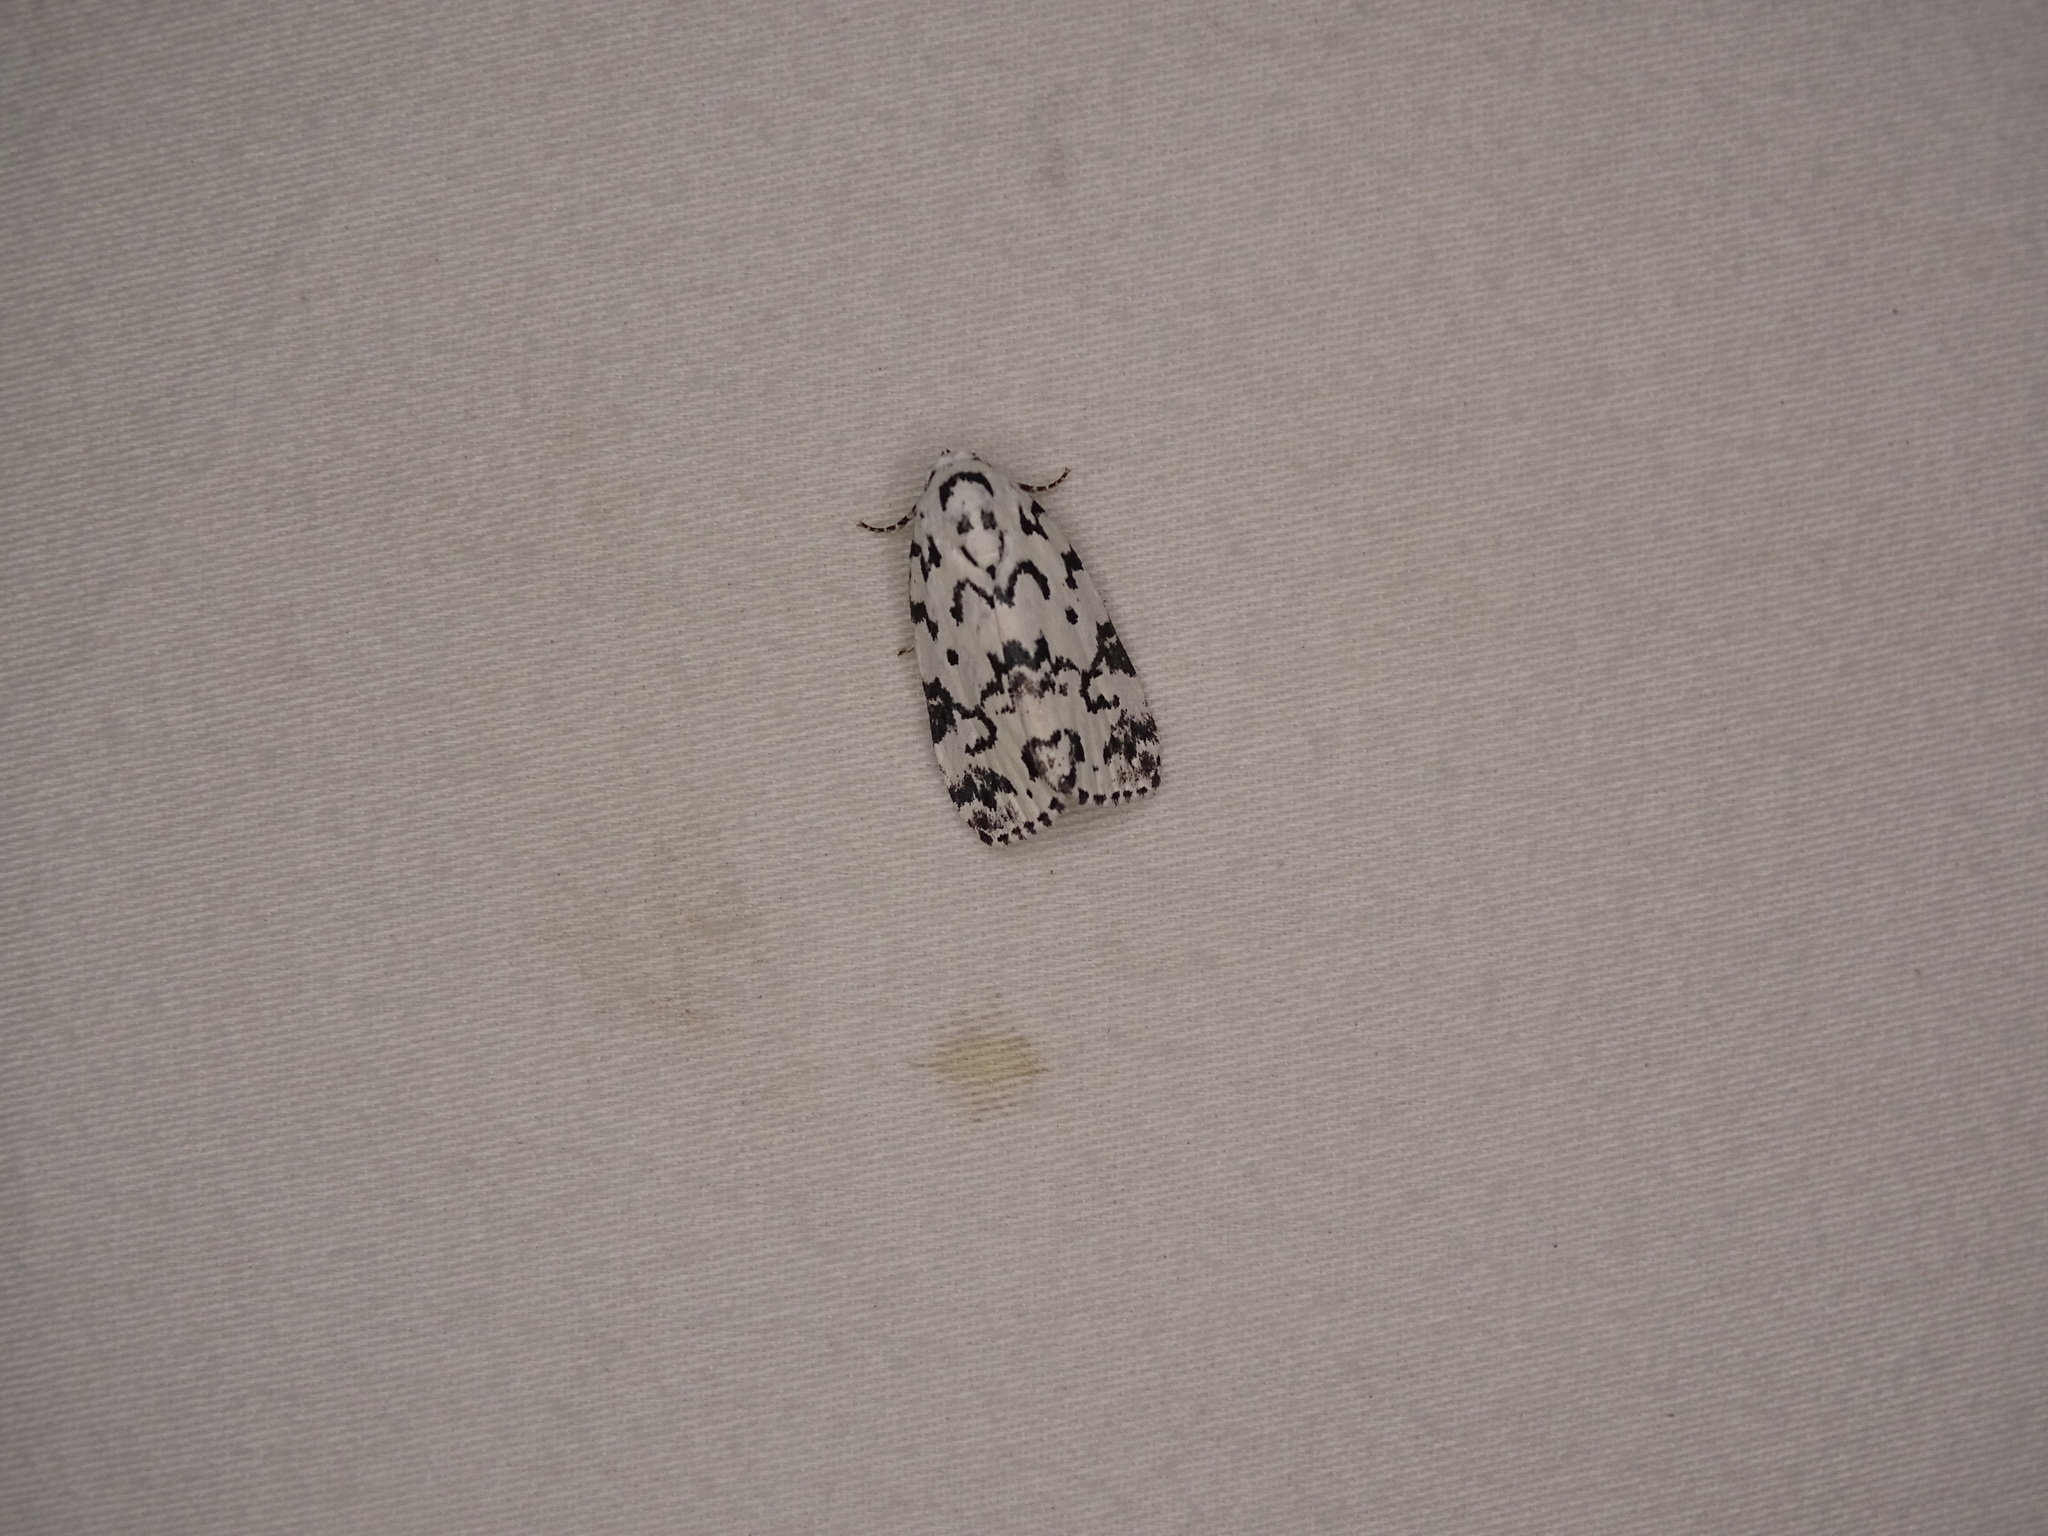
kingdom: Animalia
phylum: Arthropoda
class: Insecta
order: Lepidoptera
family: Noctuidae
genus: Polygrammate
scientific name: Polygrammate hebraeicum
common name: Hebrew moth
